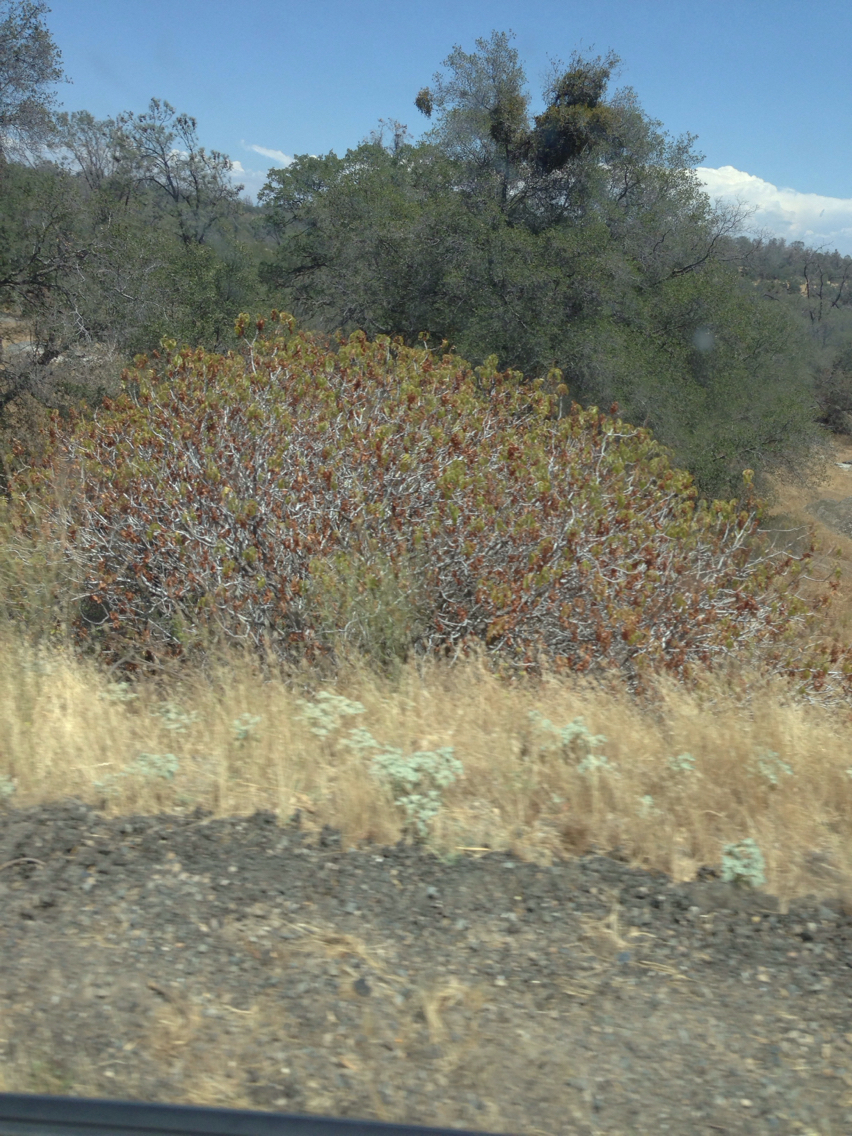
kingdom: Plantae
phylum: Tracheophyta
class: Magnoliopsida
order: Sapindales
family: Sapindaceae
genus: Aesculus
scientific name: Aesculus californica
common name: California buckeye
